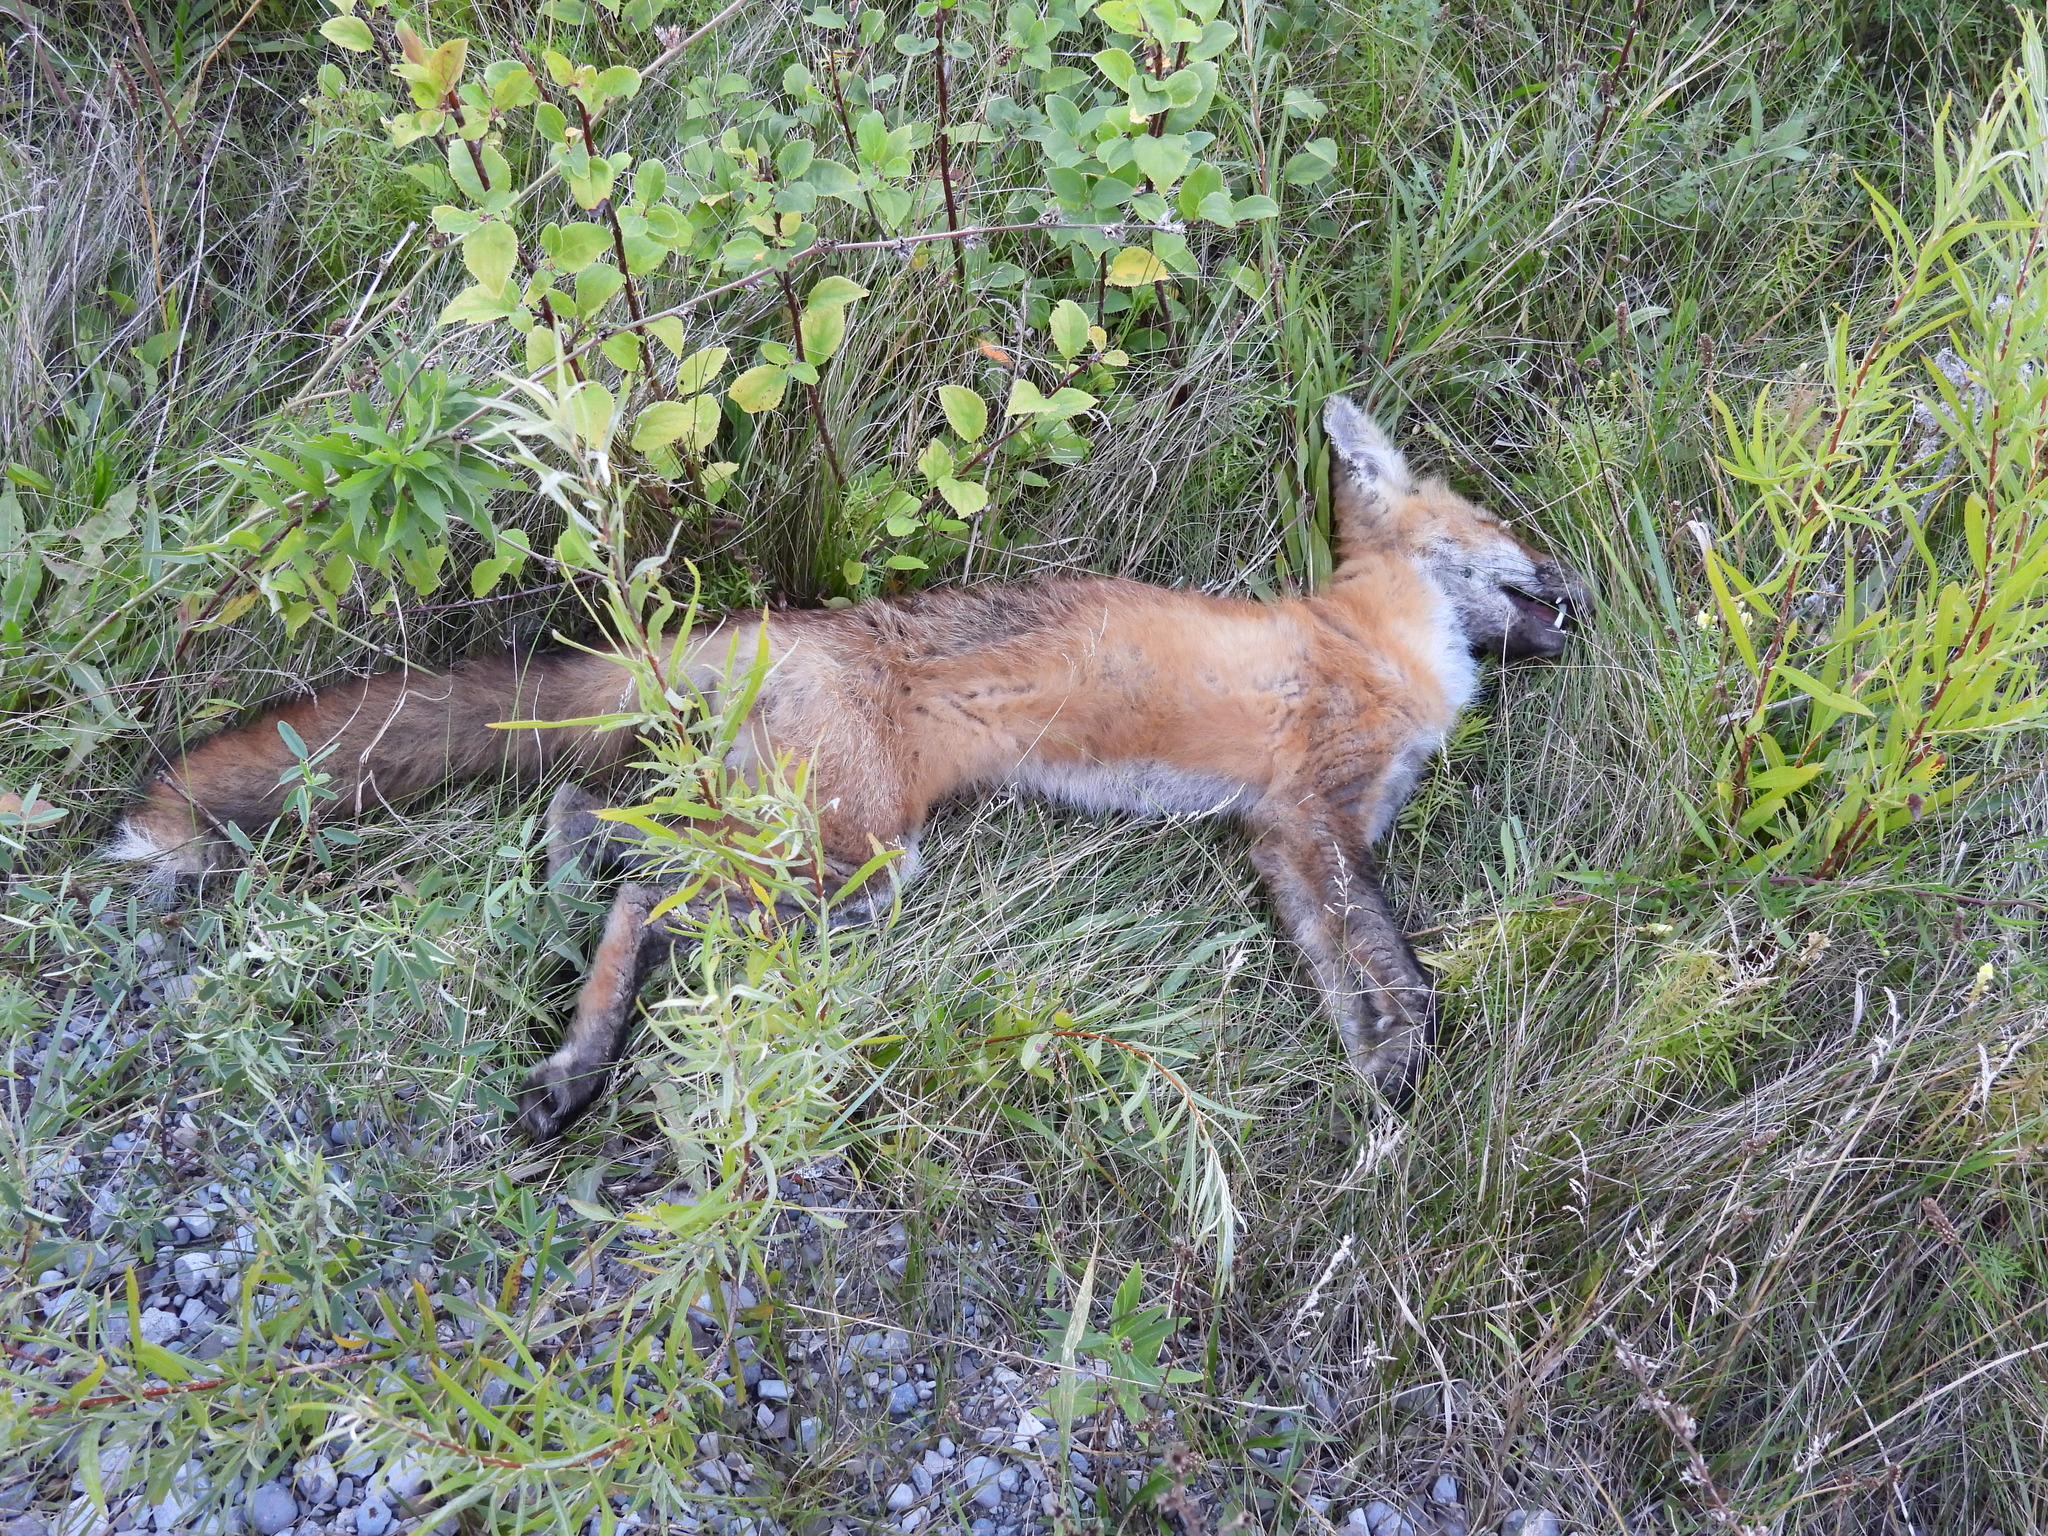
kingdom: Animalia
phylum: Chordata
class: Mammalia
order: Carnivora
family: Canidae
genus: Vulpes
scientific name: Vulpes vulpes
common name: Red fox
